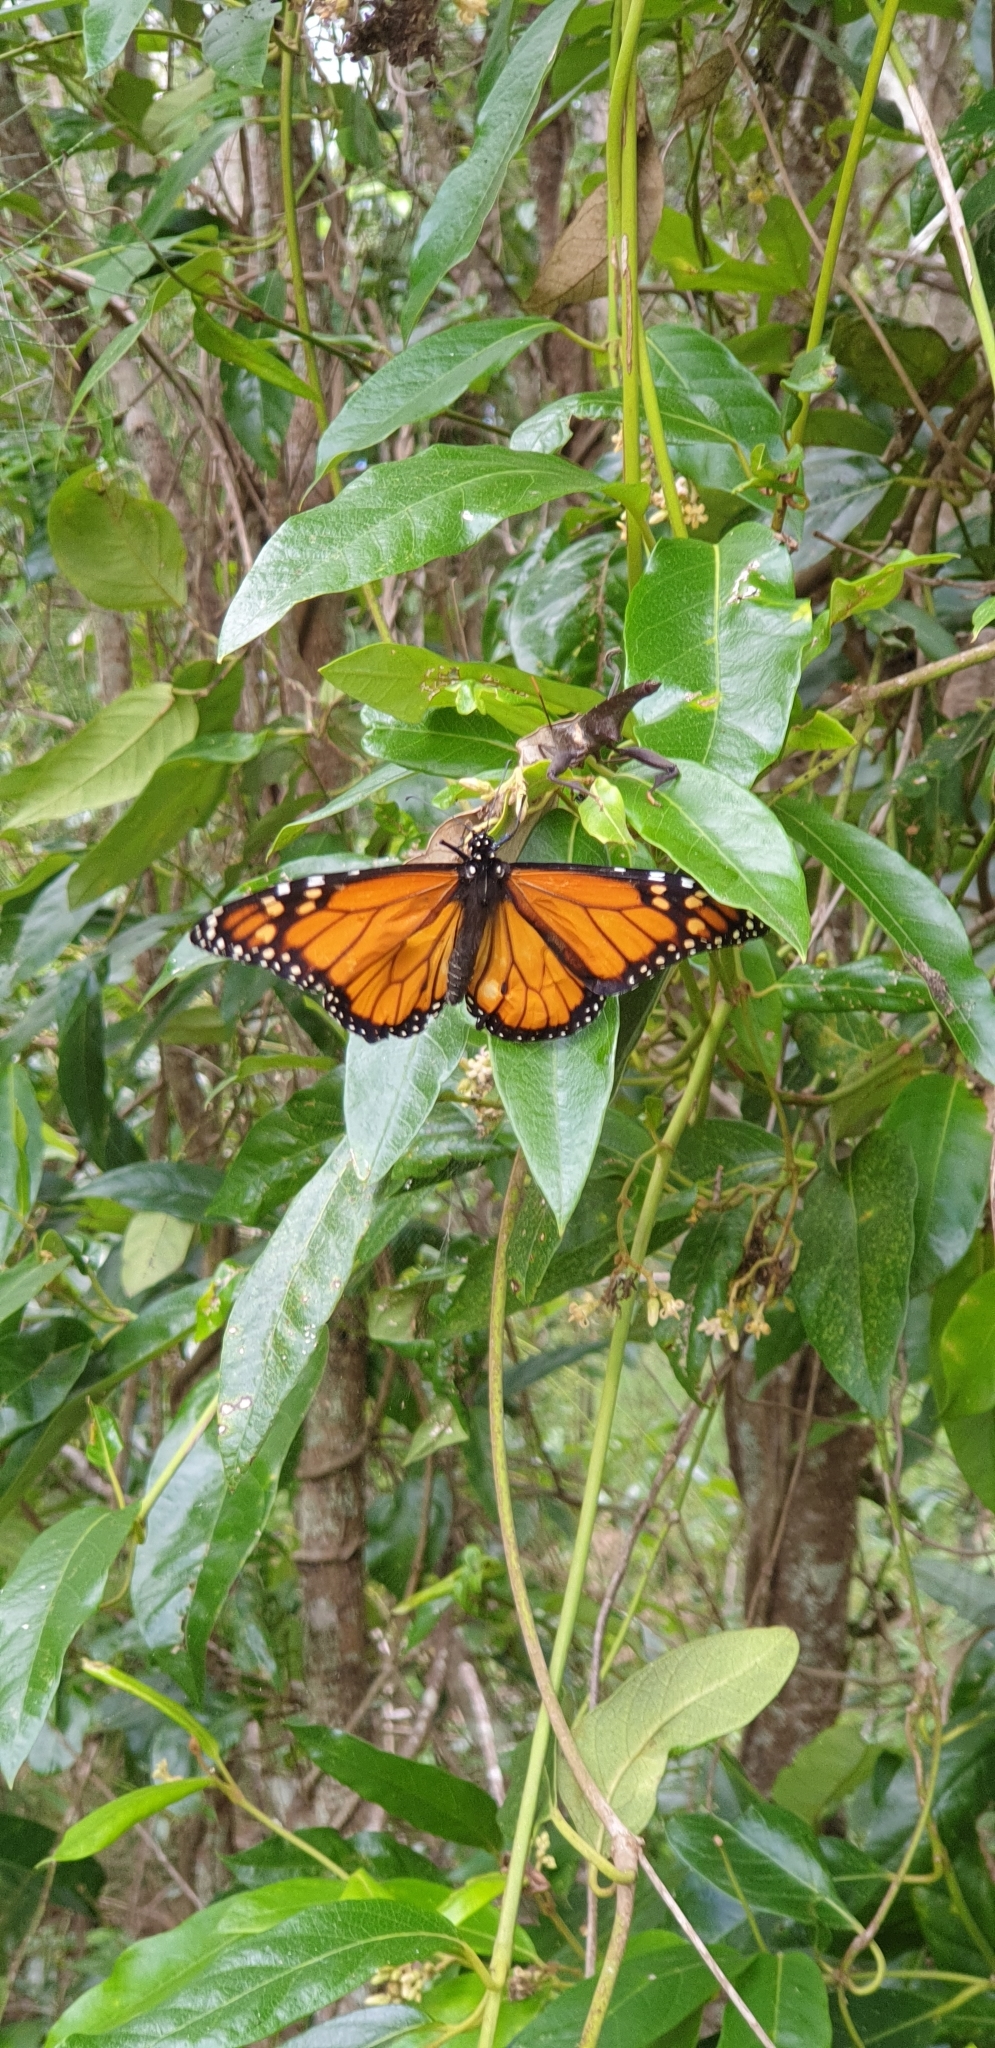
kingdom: Animalia
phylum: Arthropoda
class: Insecta
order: Lepidoptera
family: Nymphalidae
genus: Danaus
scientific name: Danaus plexippus
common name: Monarch
